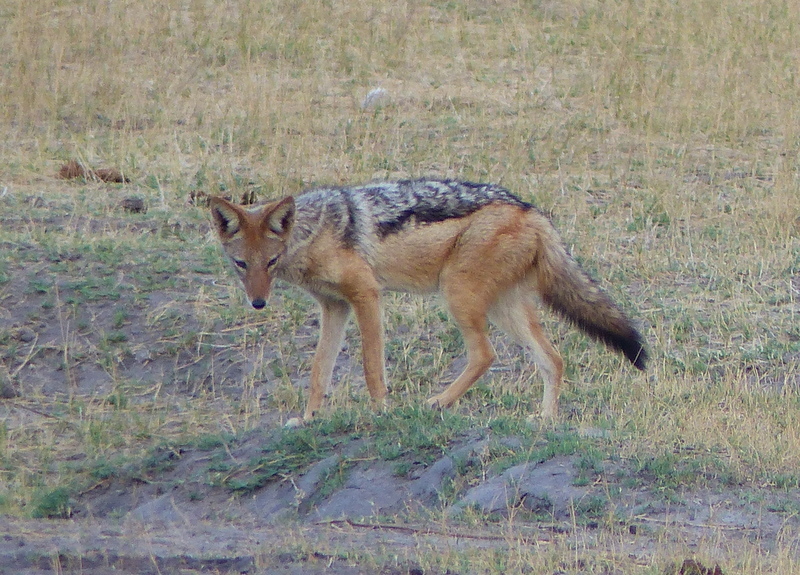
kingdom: Animalia
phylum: Chordata
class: Mammalia
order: Carnivora
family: Canidae
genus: Lupulella
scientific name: Lupulella
